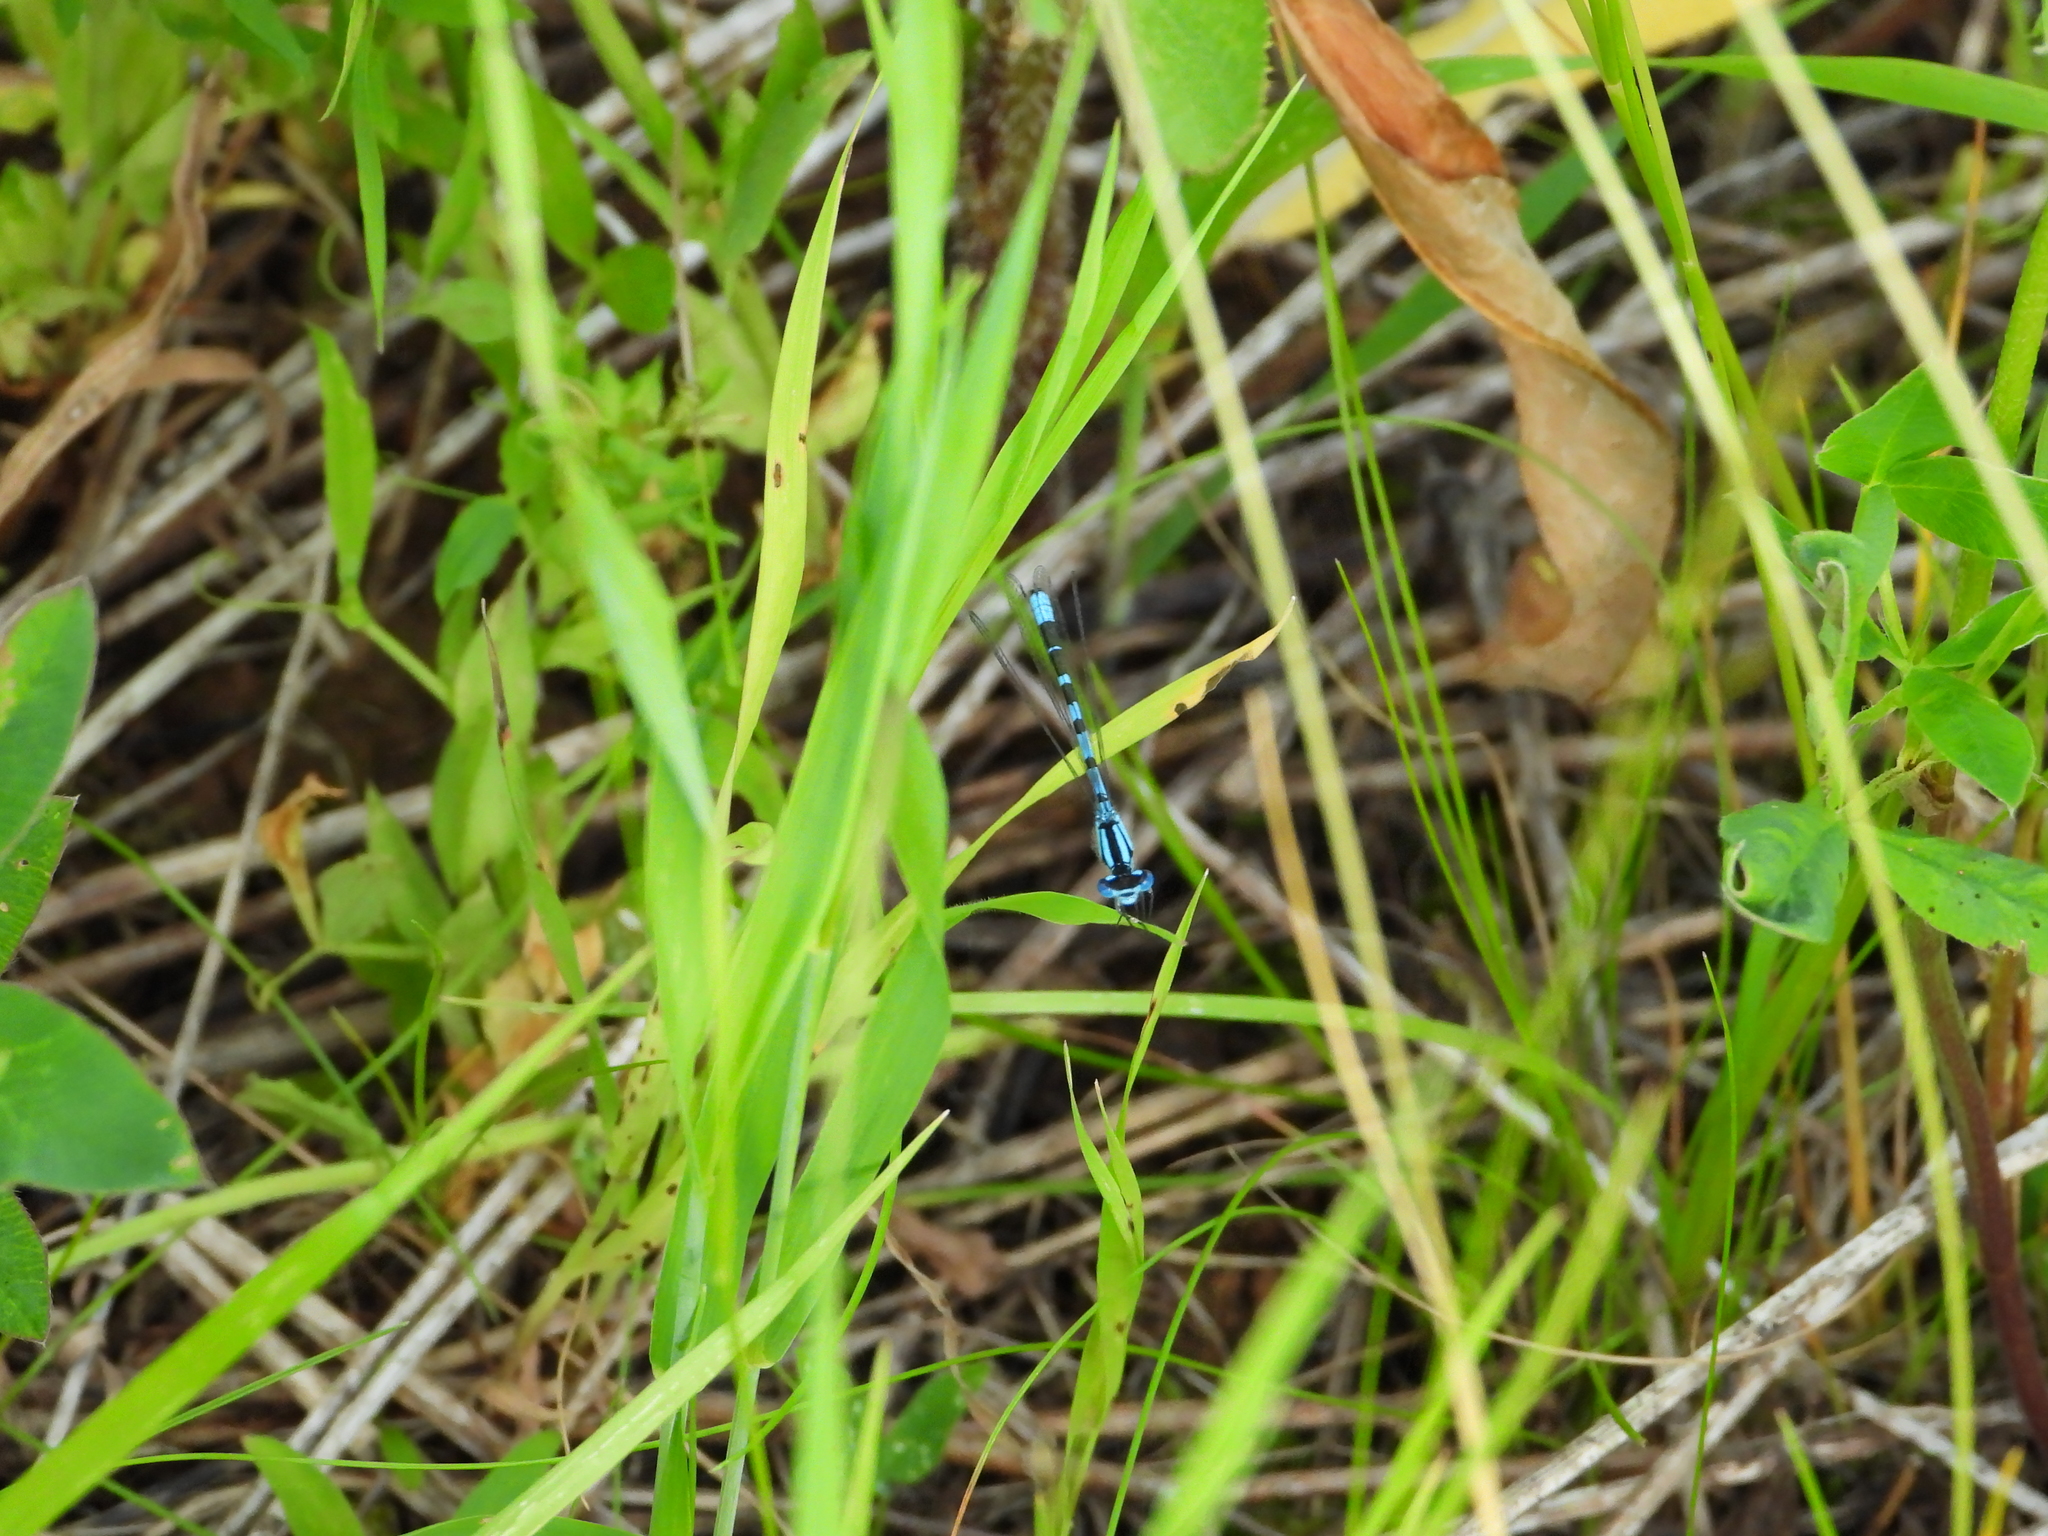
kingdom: Animalia
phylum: Arthropoda
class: Insecta
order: Odonata
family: Coenagrionidae
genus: Enallagma
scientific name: Enallagma cyathigerum
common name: Common blue damselfly
